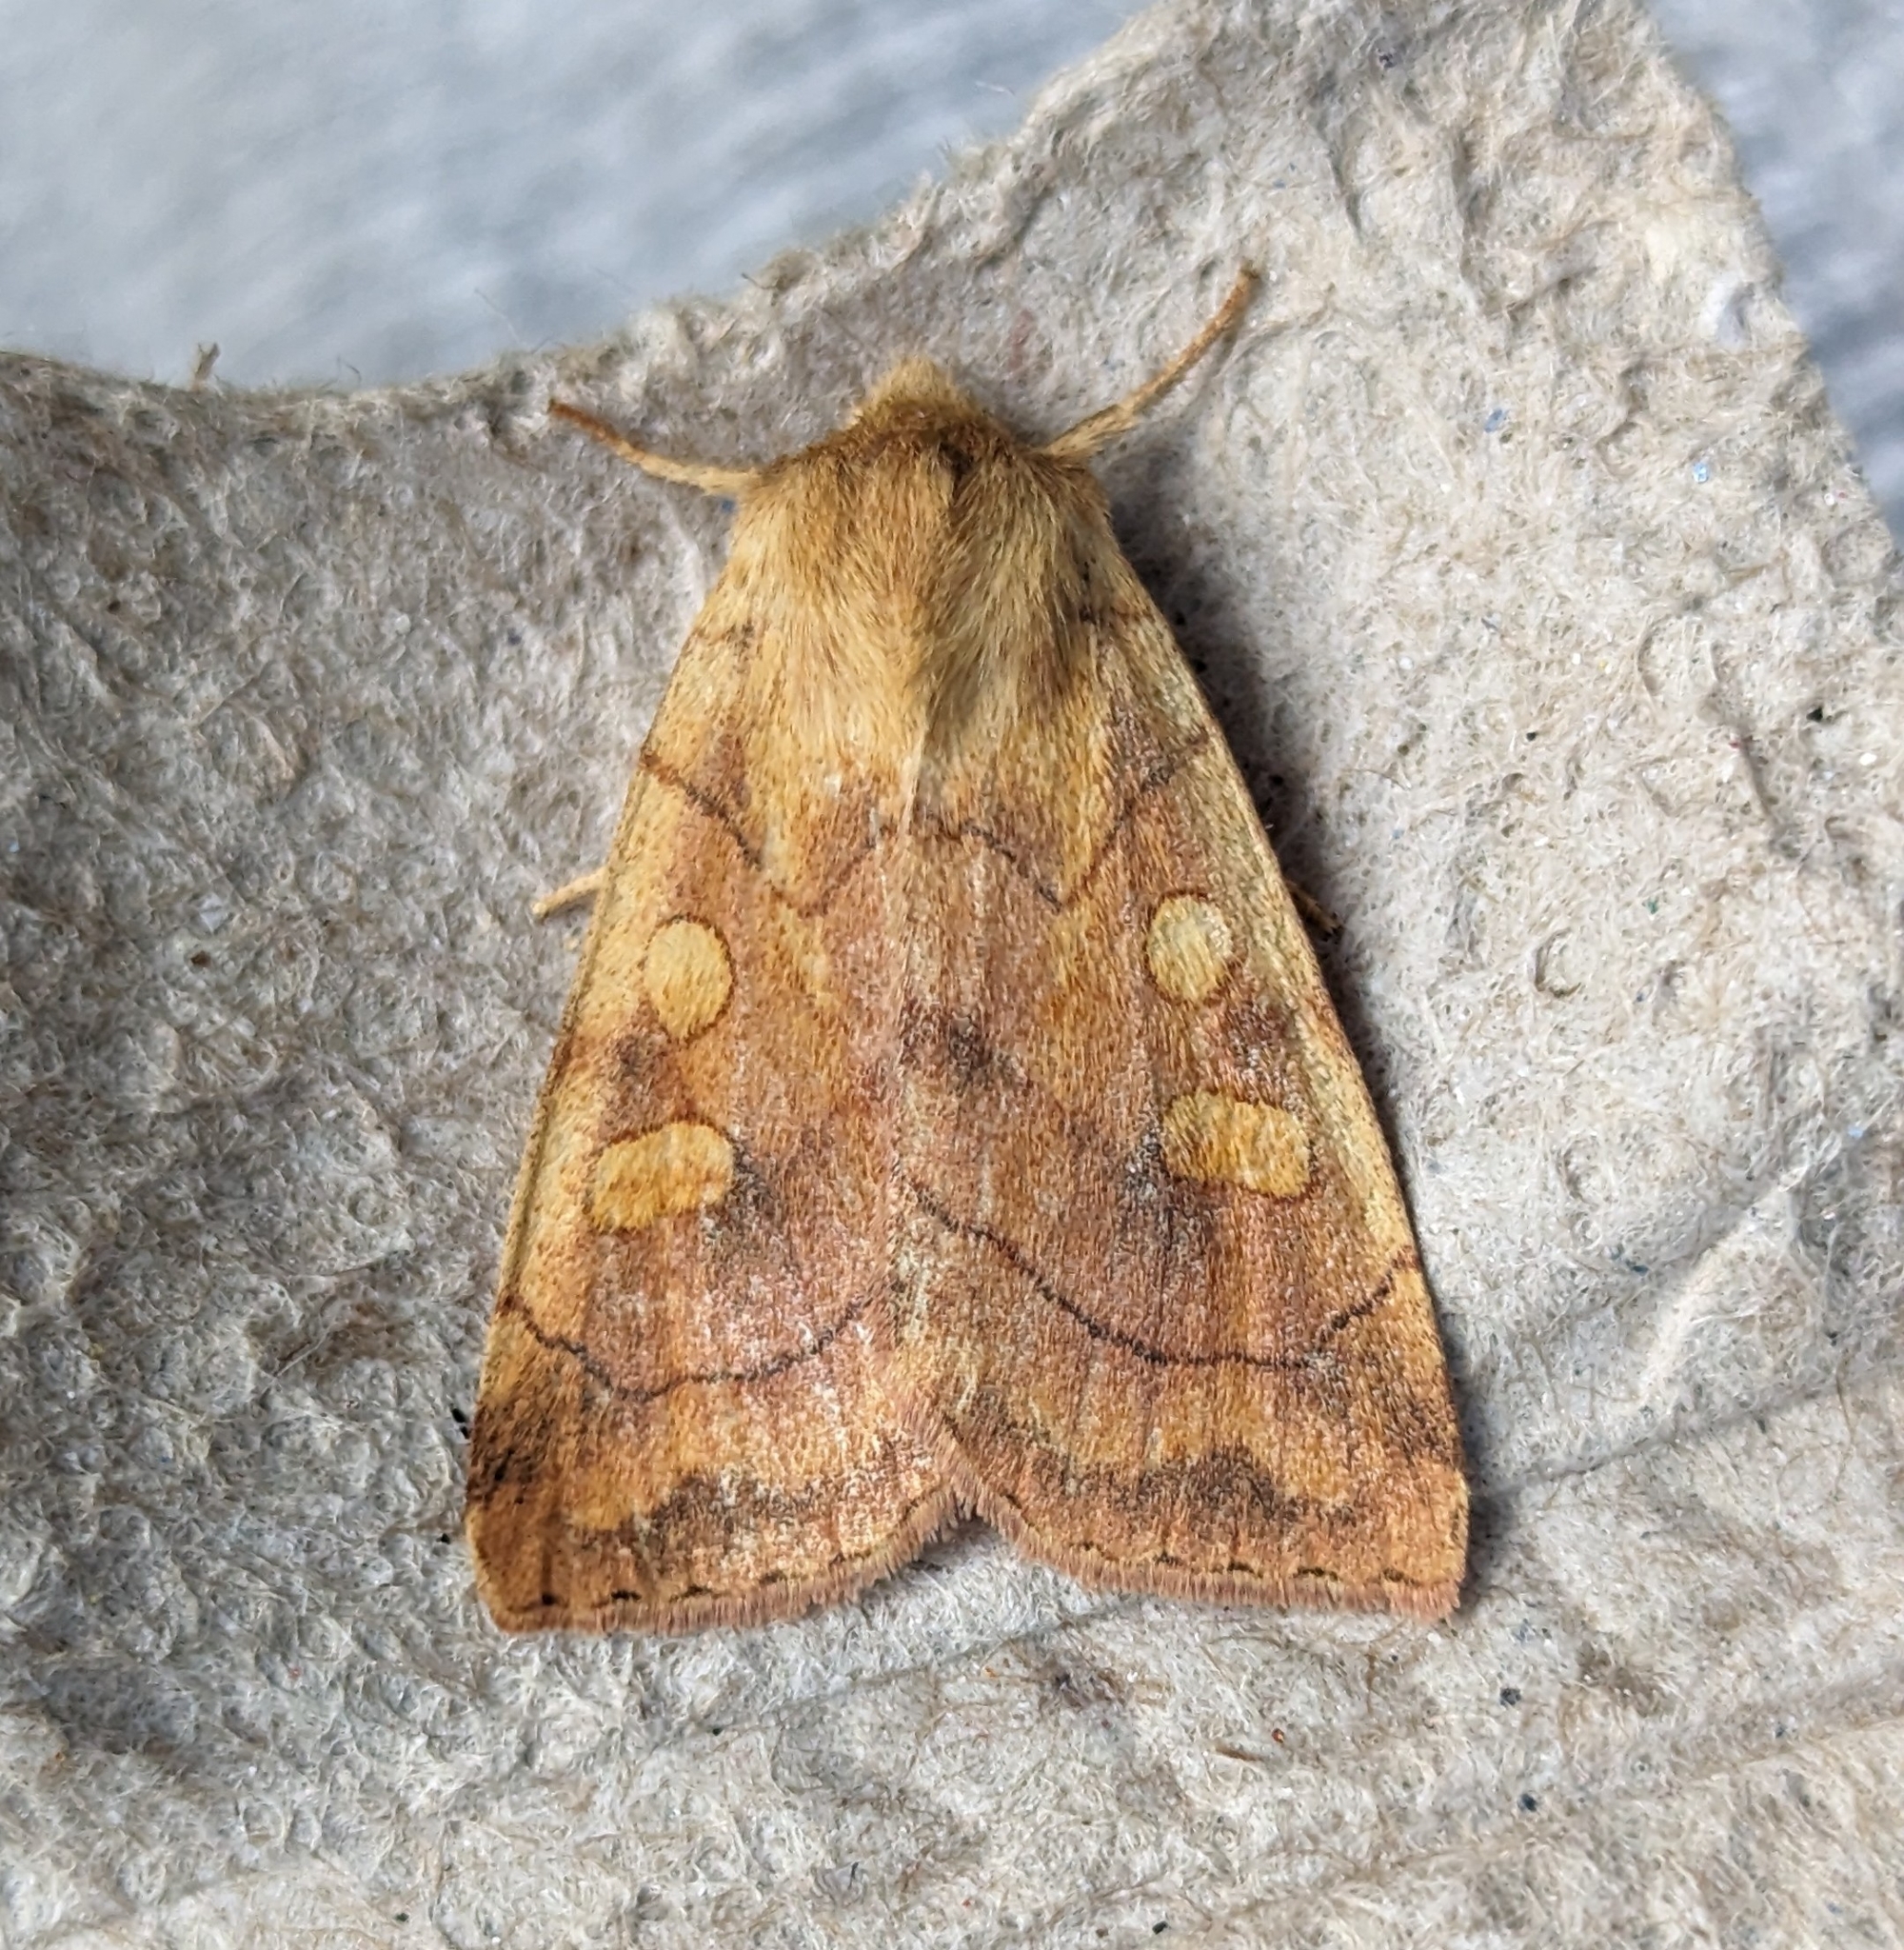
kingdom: Animalia
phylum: Arthropoda
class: Insecta
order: Lepidoptera
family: Noctuidae
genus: Enargia
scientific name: Enargia decolor
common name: Aspen twoleaf tier moth
